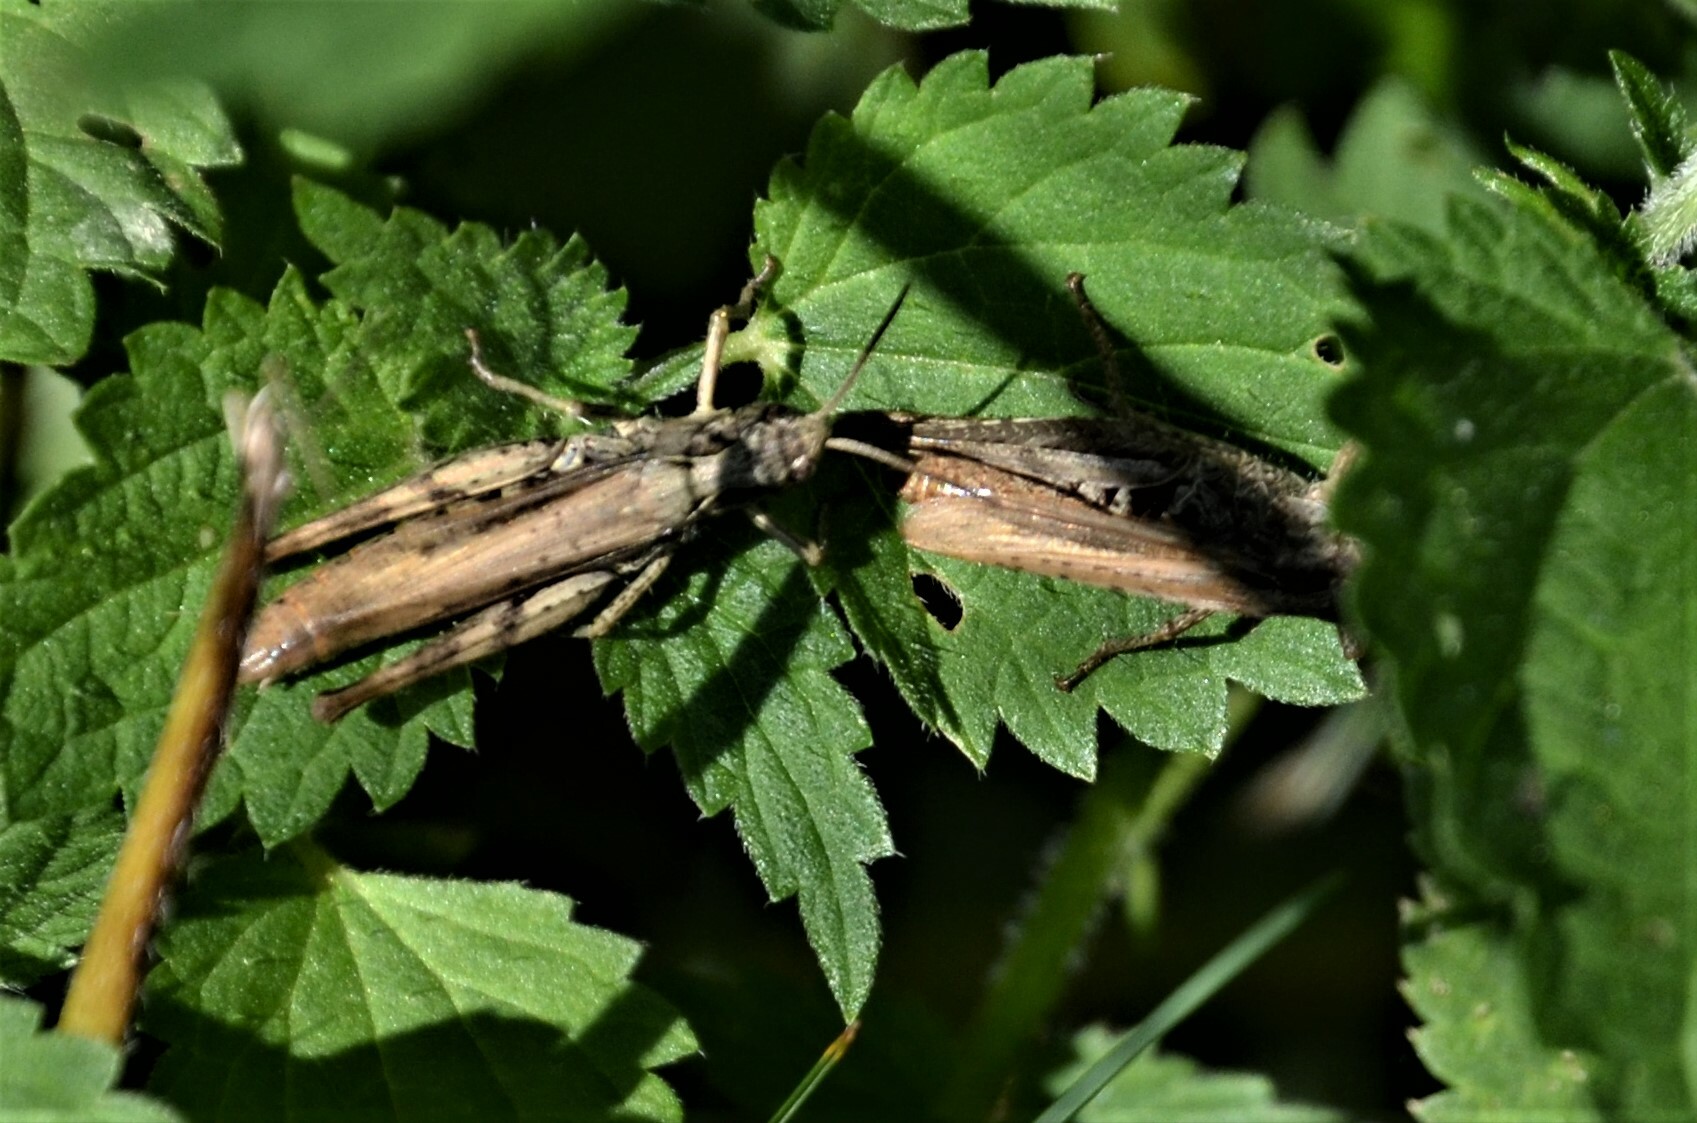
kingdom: Animalia
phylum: Arthropoda
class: Insecta
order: Orthoptera
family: Acrididae
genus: Chorthippus
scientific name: Chorthippus apricarius
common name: Upland field grasshopper
